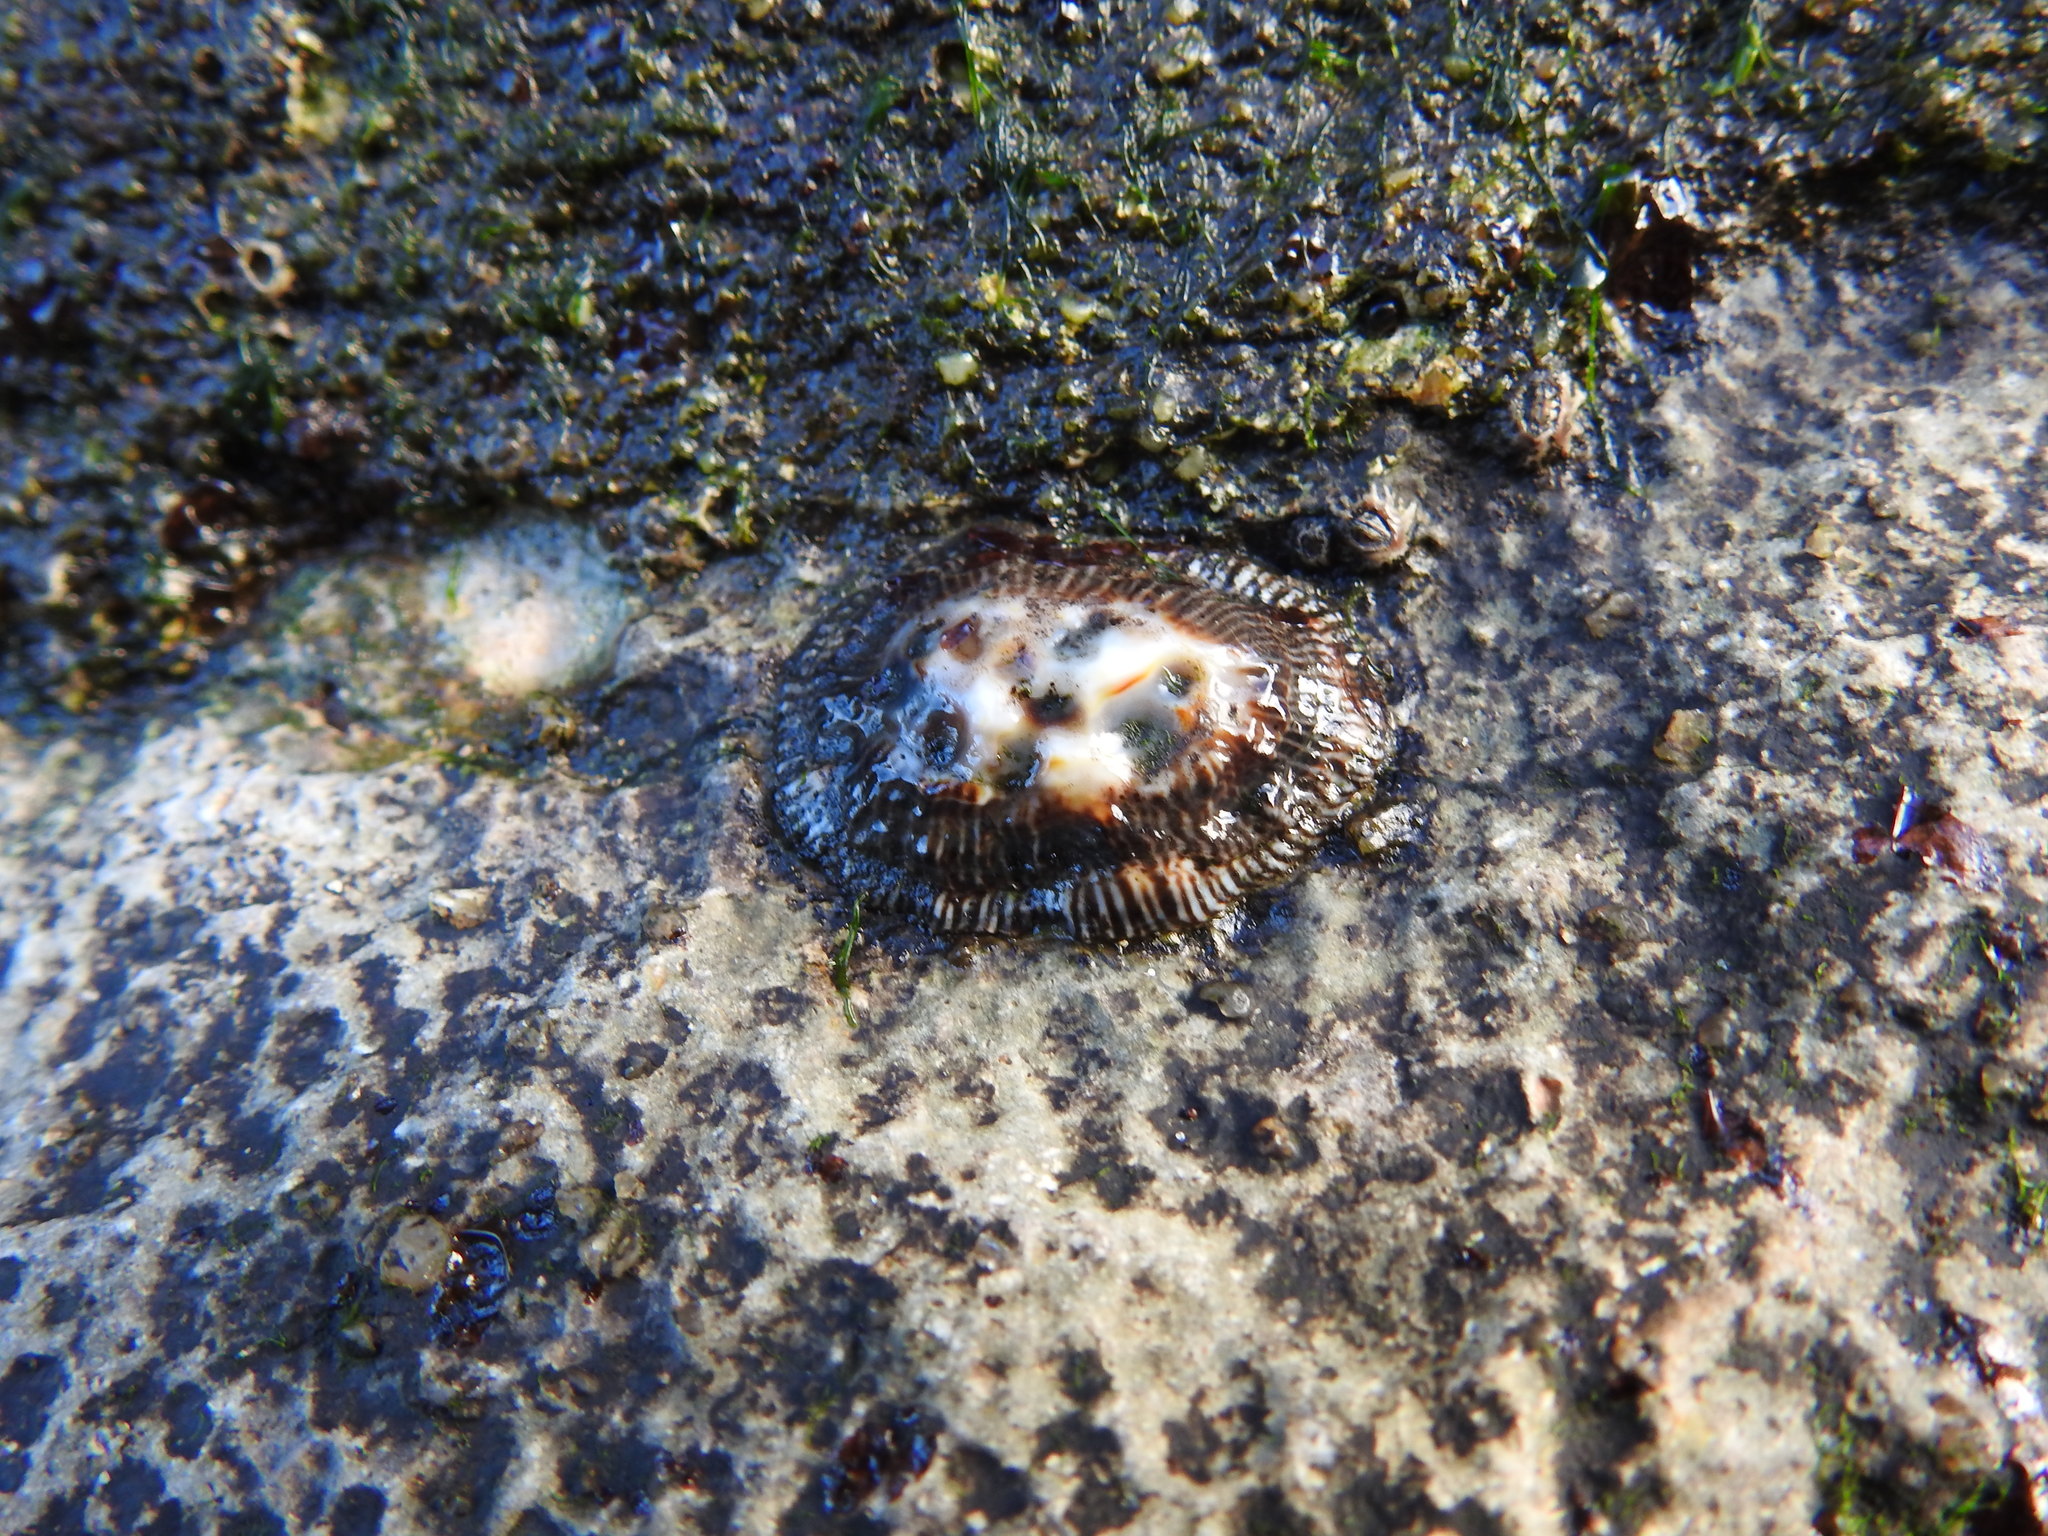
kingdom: Animalia
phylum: Mollusca
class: Gastropoda
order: Siphonariida
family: Siphonariidae
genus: Siphonaria
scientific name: Siphonaria pectinata
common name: Striped false limpet
